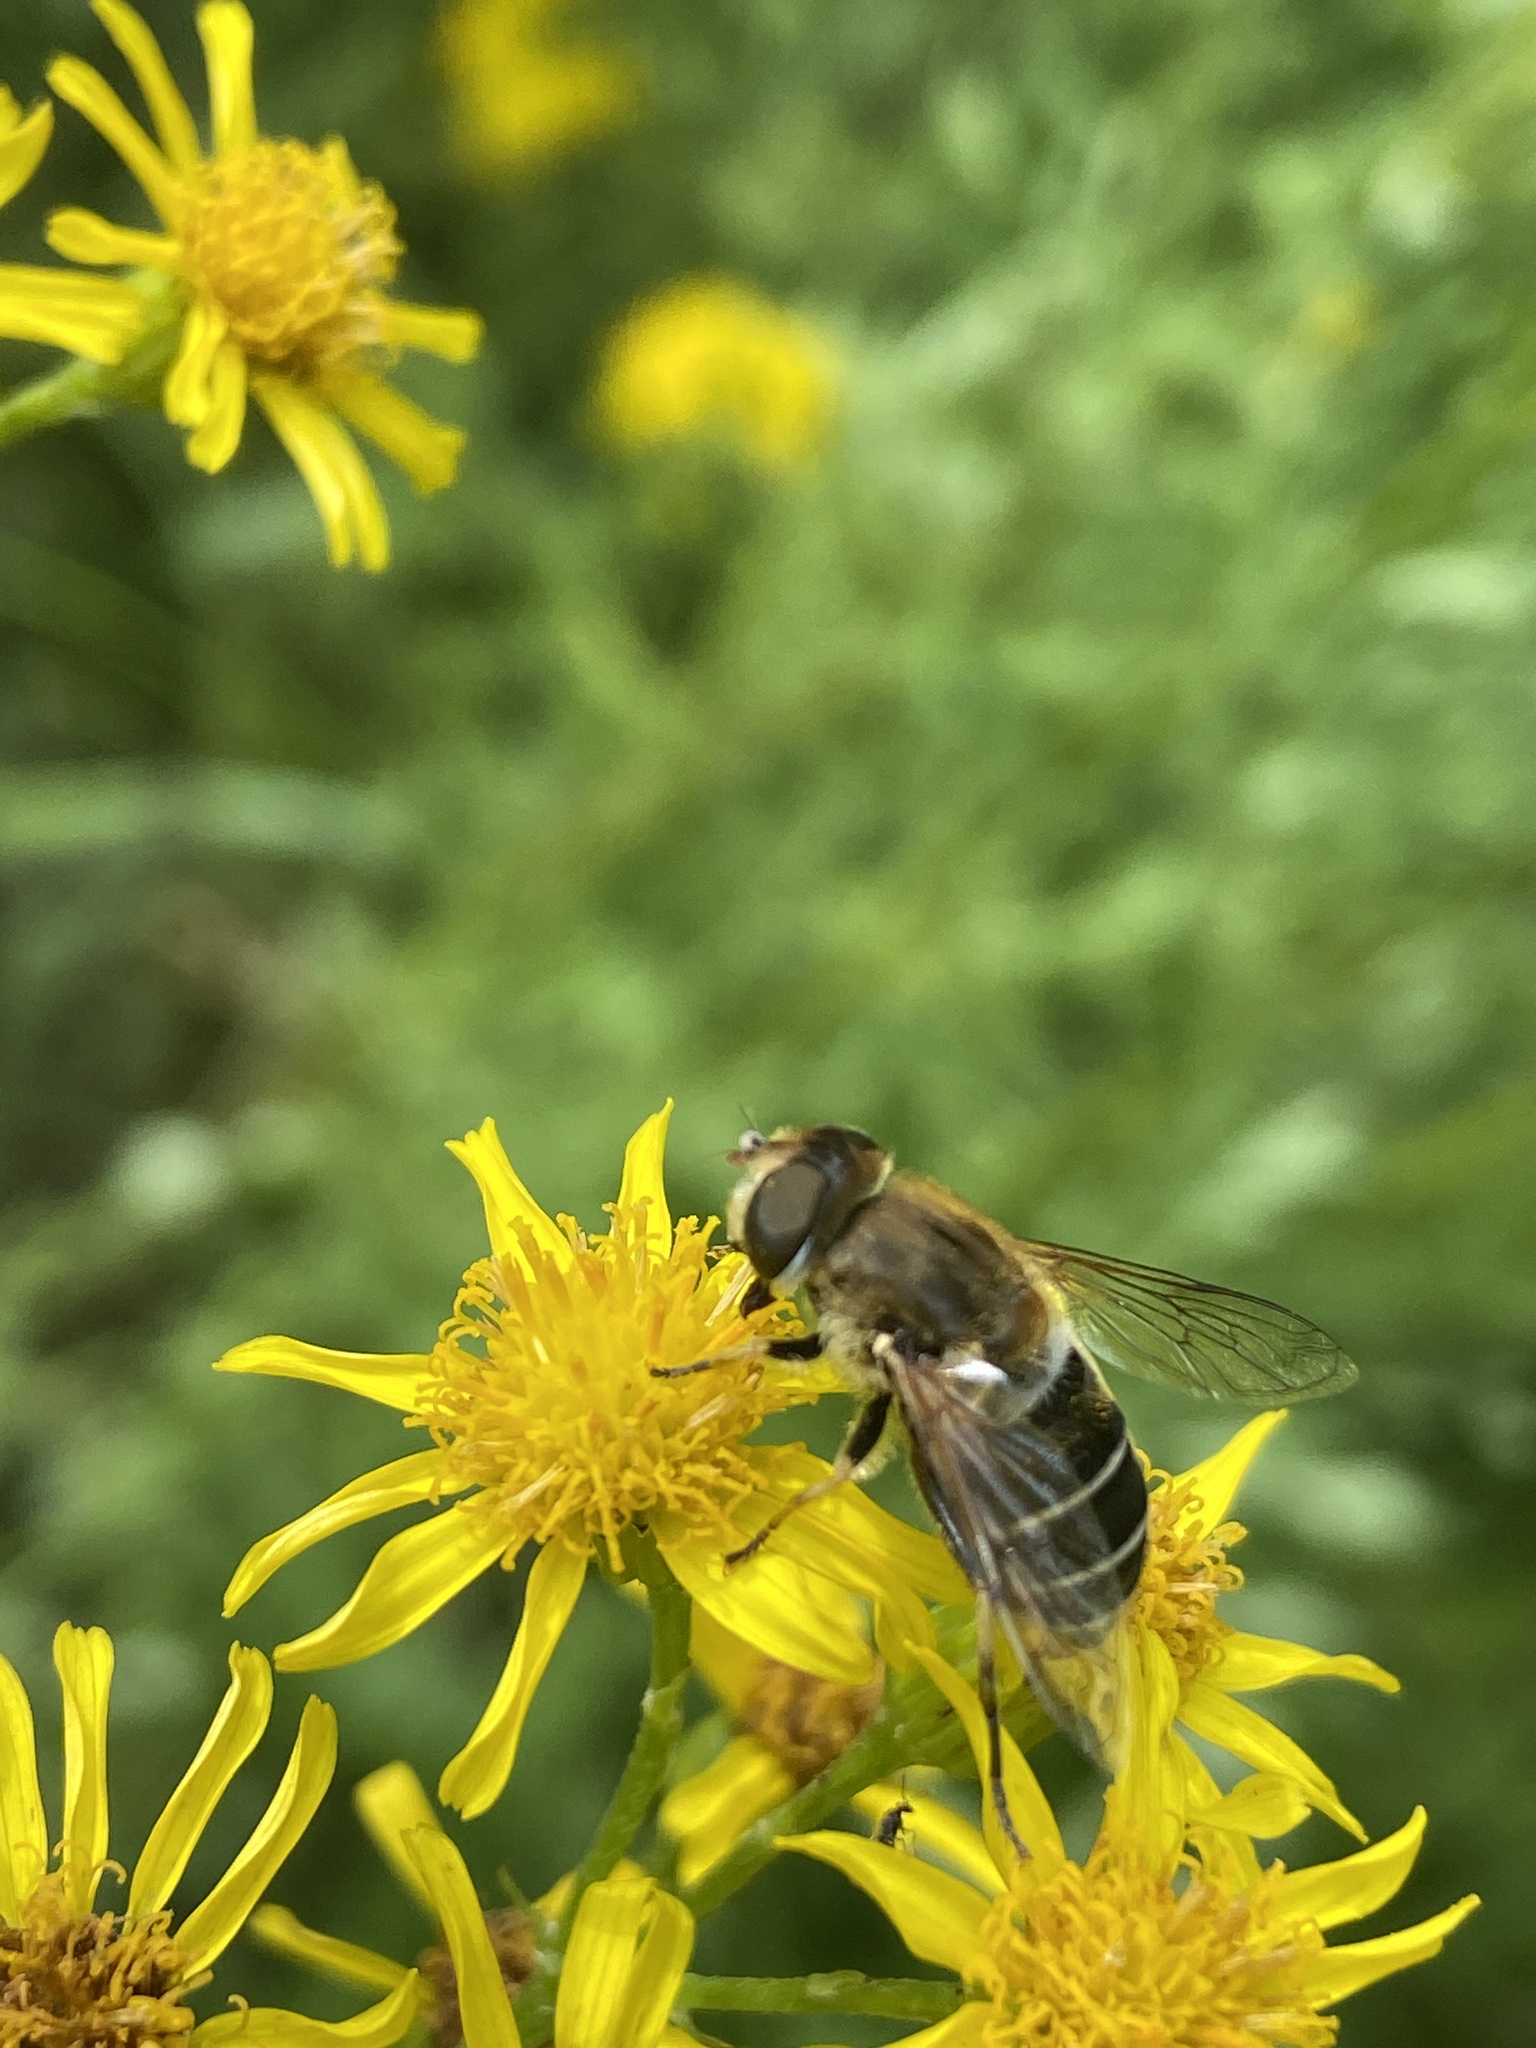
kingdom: Animalia
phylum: Arthropoda
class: Insecta
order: Diptera
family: Syrphidae
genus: Eristalis
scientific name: Eristalis nemorum
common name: Orange-spined drone fly
